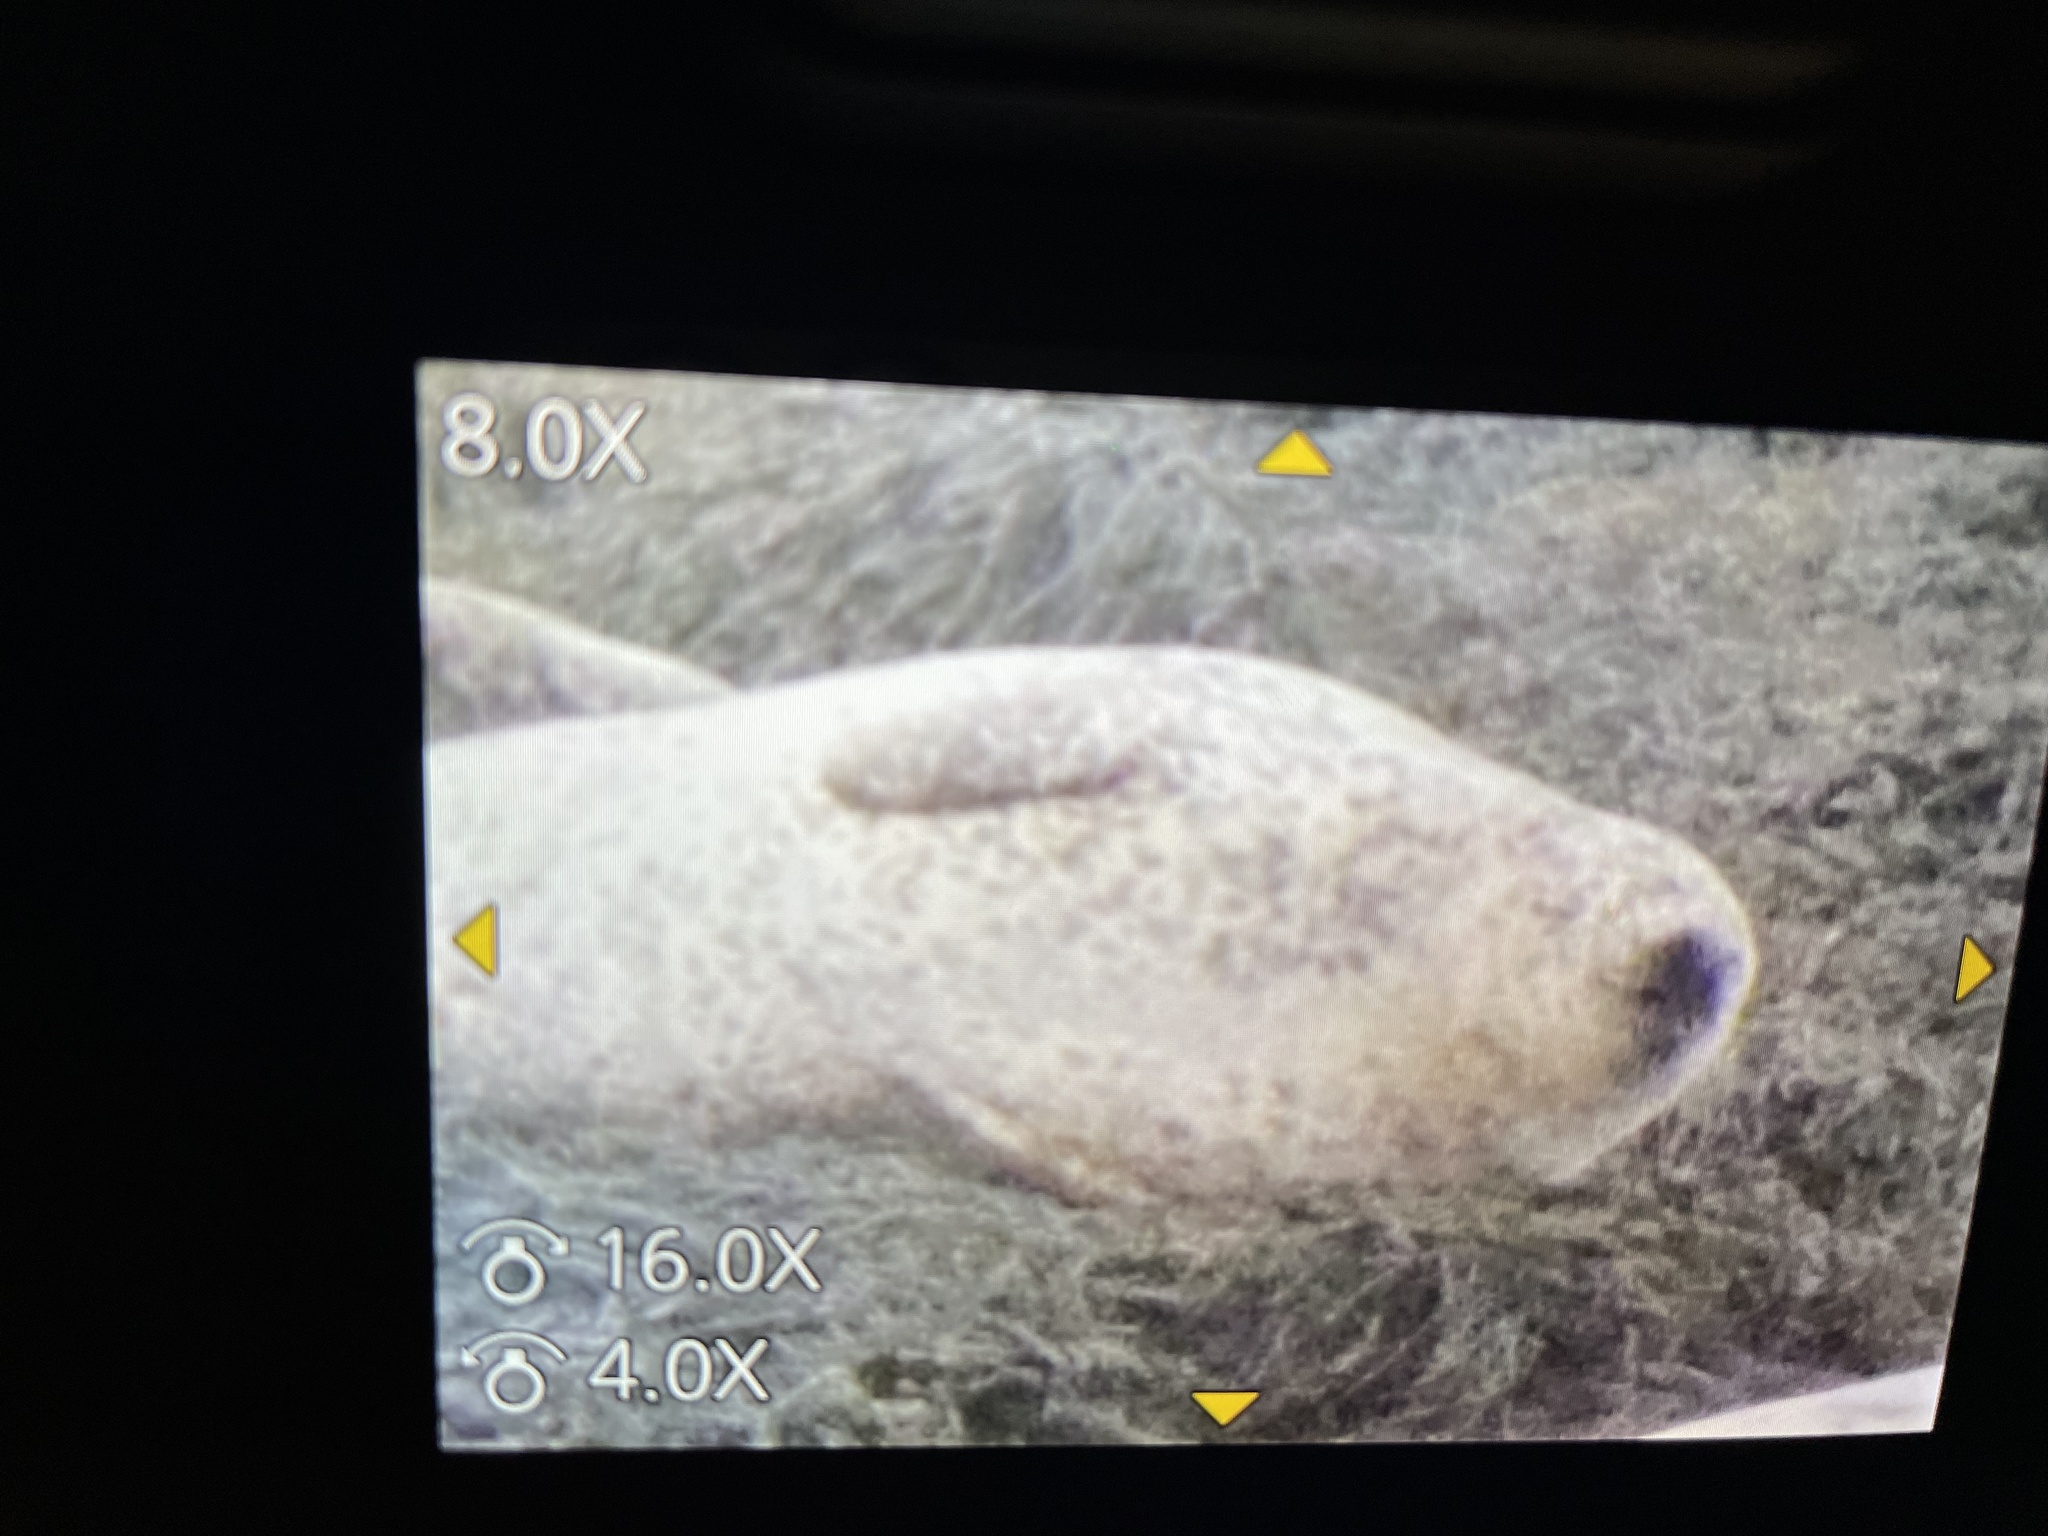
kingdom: Animalia
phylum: Chordata
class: Mammalia
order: Carnivora
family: Phocidae
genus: Phoca
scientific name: Phoca vitulina
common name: Harbor seal
